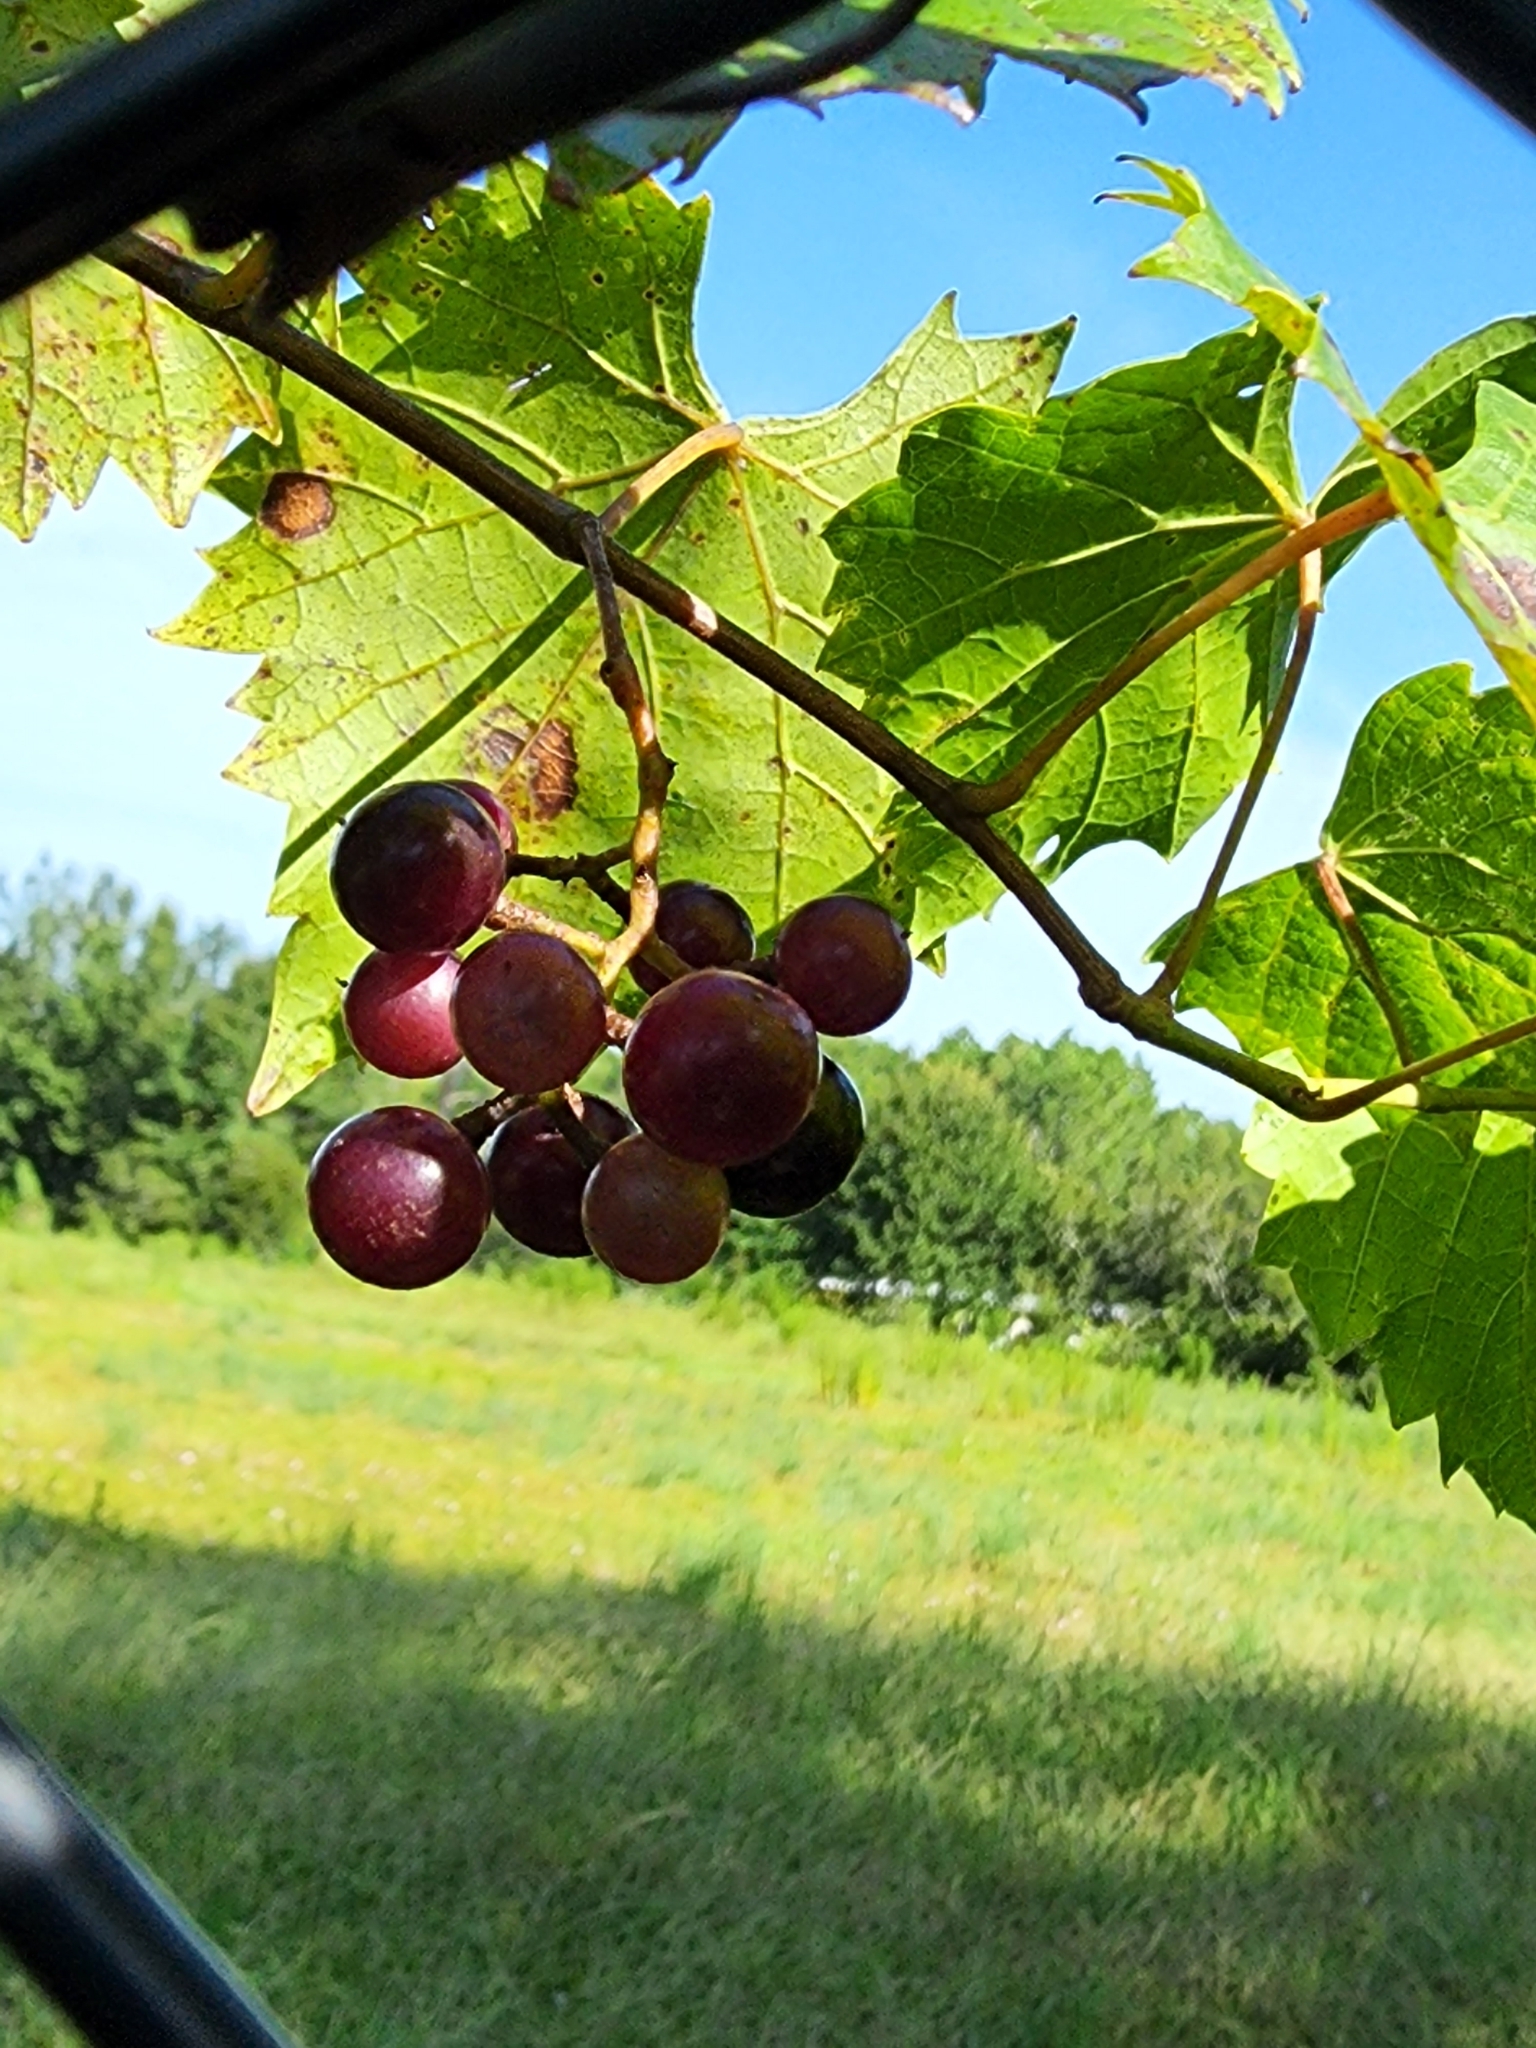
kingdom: Plantae
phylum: Tracheophyta
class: Magnoliopsida
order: Vitales
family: Vitaceae
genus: Vitis
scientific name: Vitis rotundifolia
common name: Muscadine grape
